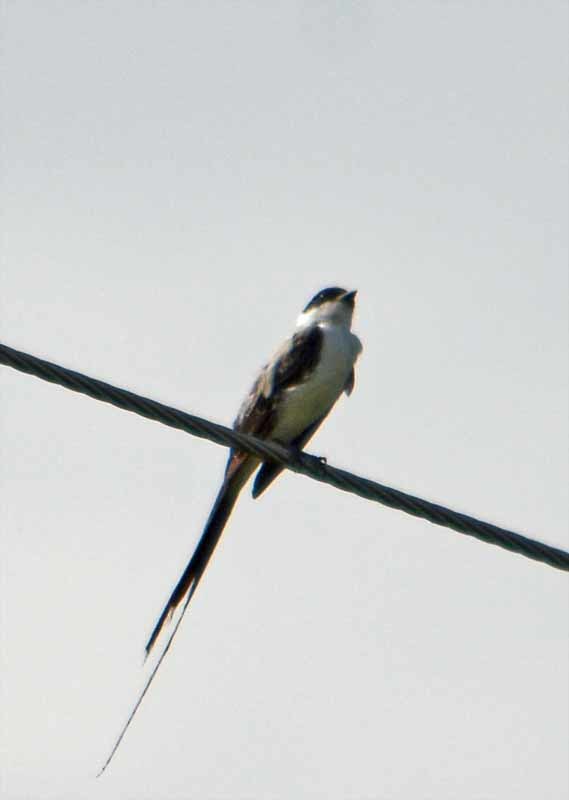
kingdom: Animalia
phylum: Chordata
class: Aves
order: Passeriformes
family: Tyrannidae
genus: Tyrannus
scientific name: Tyrannus savana
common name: Fork-tailed flycatcher
